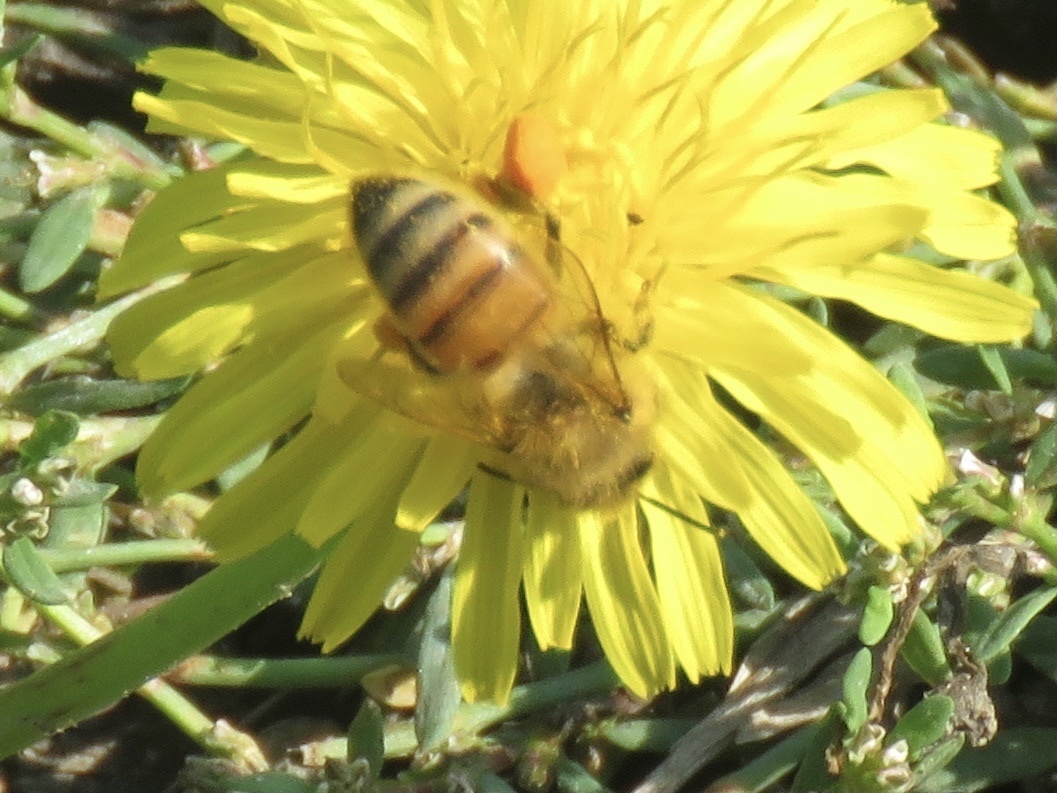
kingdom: Animalia
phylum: Arthropoda
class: Insecta
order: Hymenoptera
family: Apidae
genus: Apis
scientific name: Apis mellifera
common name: Honey bee
